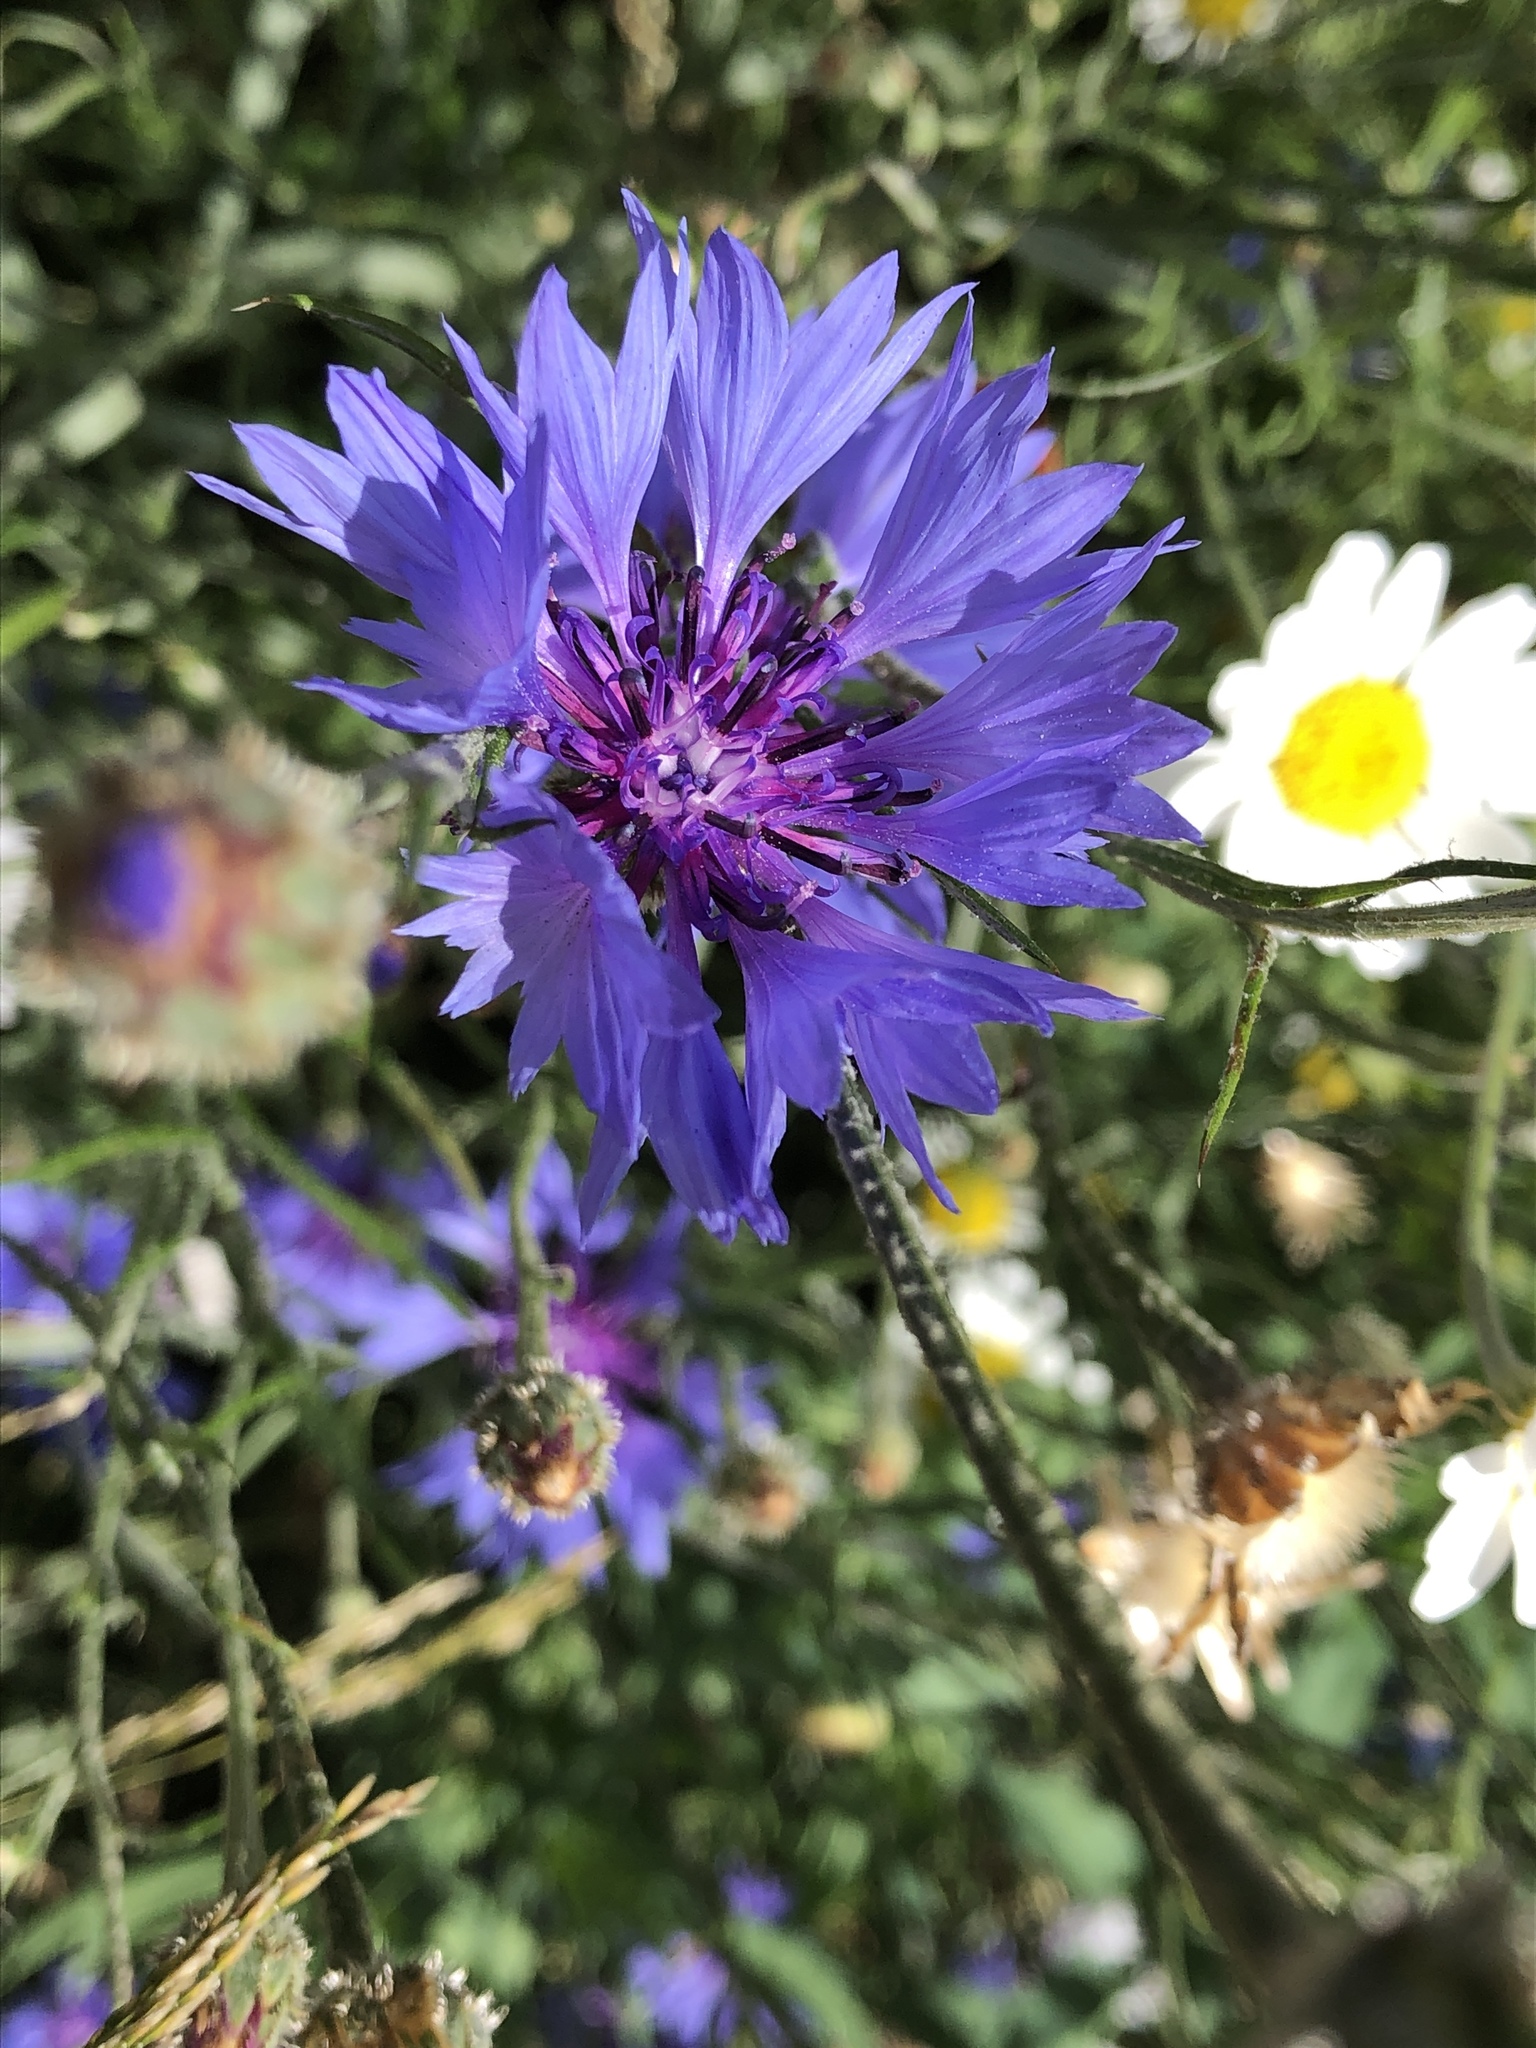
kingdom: Plantae
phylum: Tracheophyta
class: Magnoliopsida
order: Asterales
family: Asteraceae
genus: Centaurea
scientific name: Centaurea cyanus
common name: Cornflower
